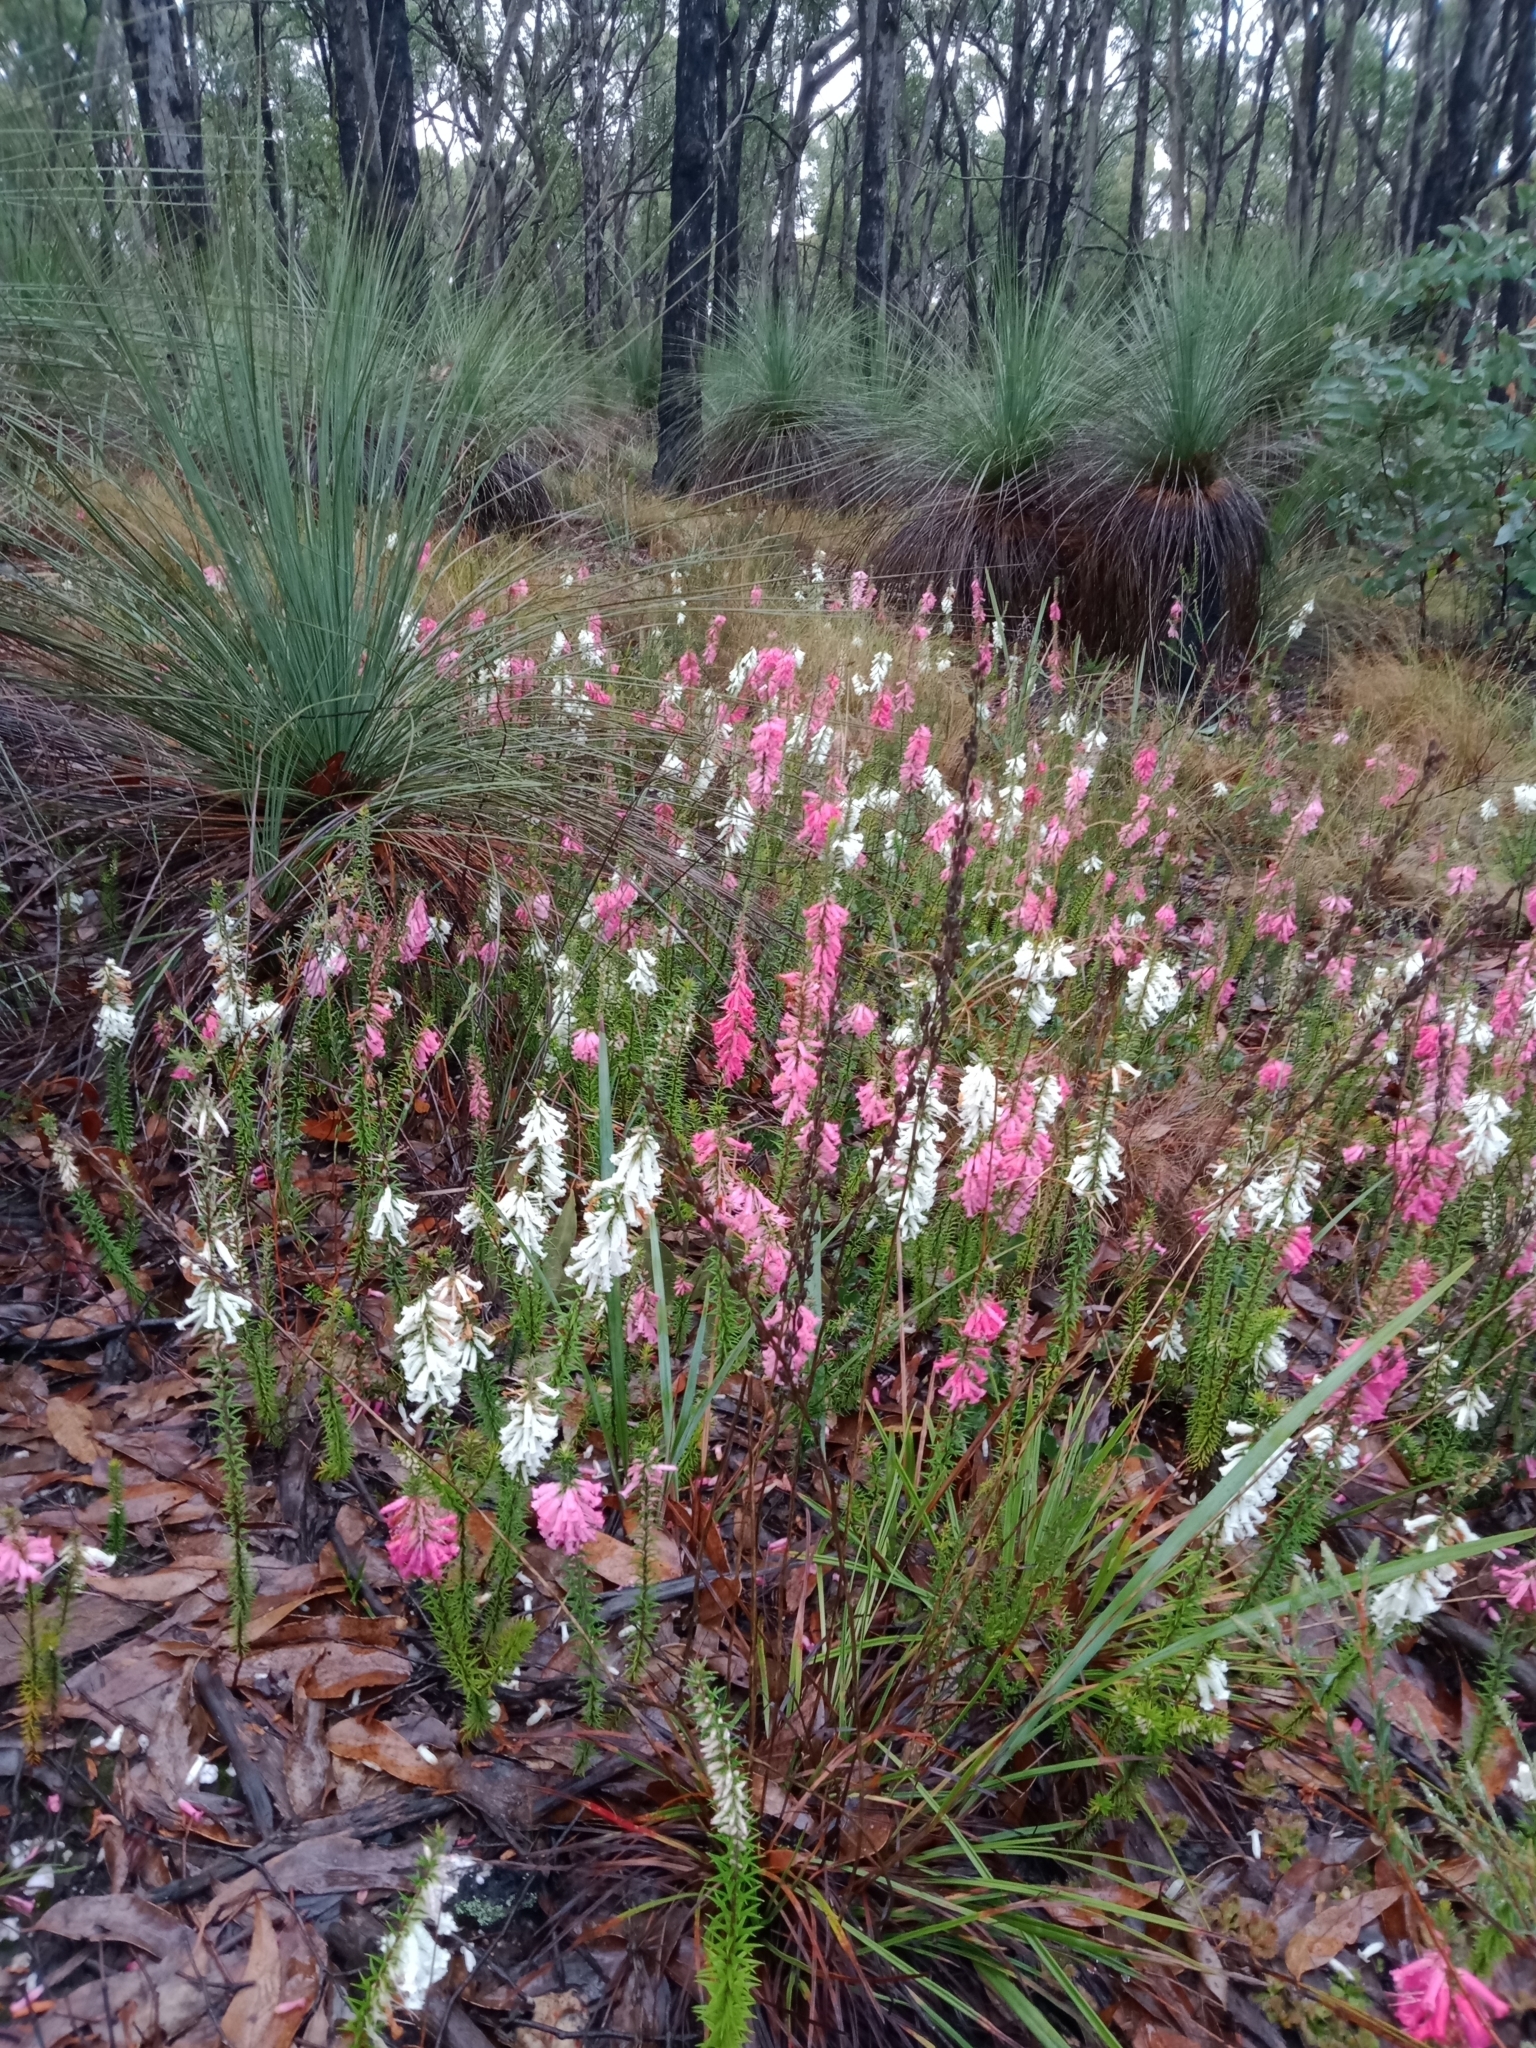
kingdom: Plantae
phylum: Tracheophyta
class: Magnoliopsida
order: Ericales
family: Ericaceae
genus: Epacris
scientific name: Epacris impressa
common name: Common-heath
